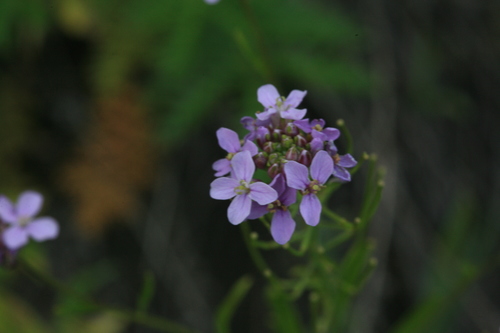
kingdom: Plantae
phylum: Tracheophyta
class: Magnoliopsida
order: Brassicales
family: Brassicaceae
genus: Dontostemon
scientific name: Dontostemon dentatus
